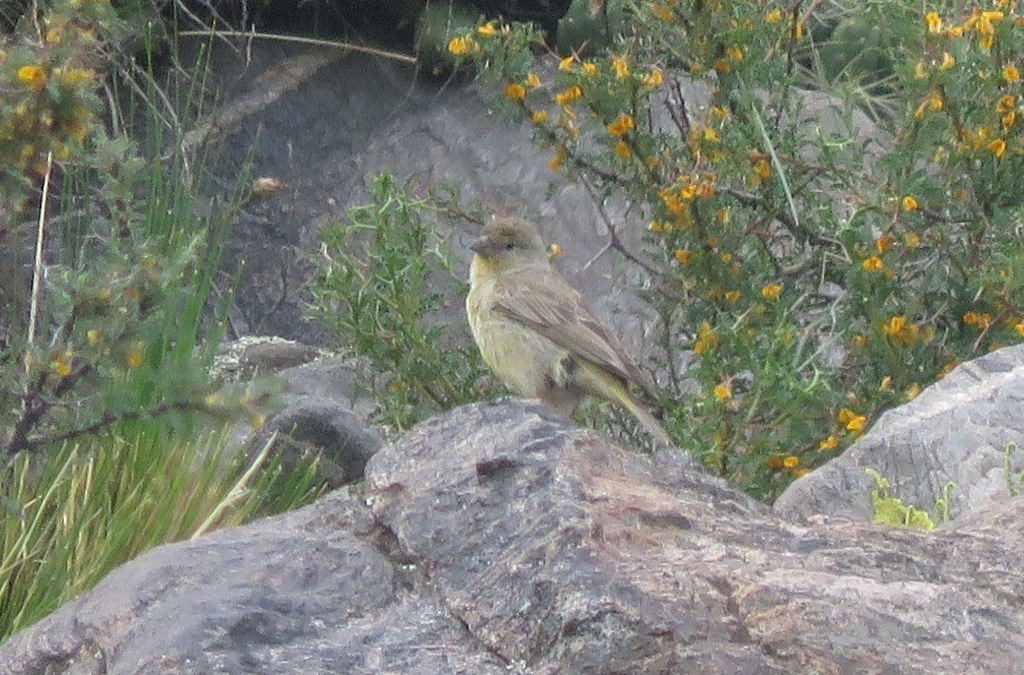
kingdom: Animalia
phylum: Chordata
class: Aves
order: Passeriformes
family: Thraupidae
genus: Sicalis
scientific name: Sicalis olivascens
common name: Greenish yellow finch
